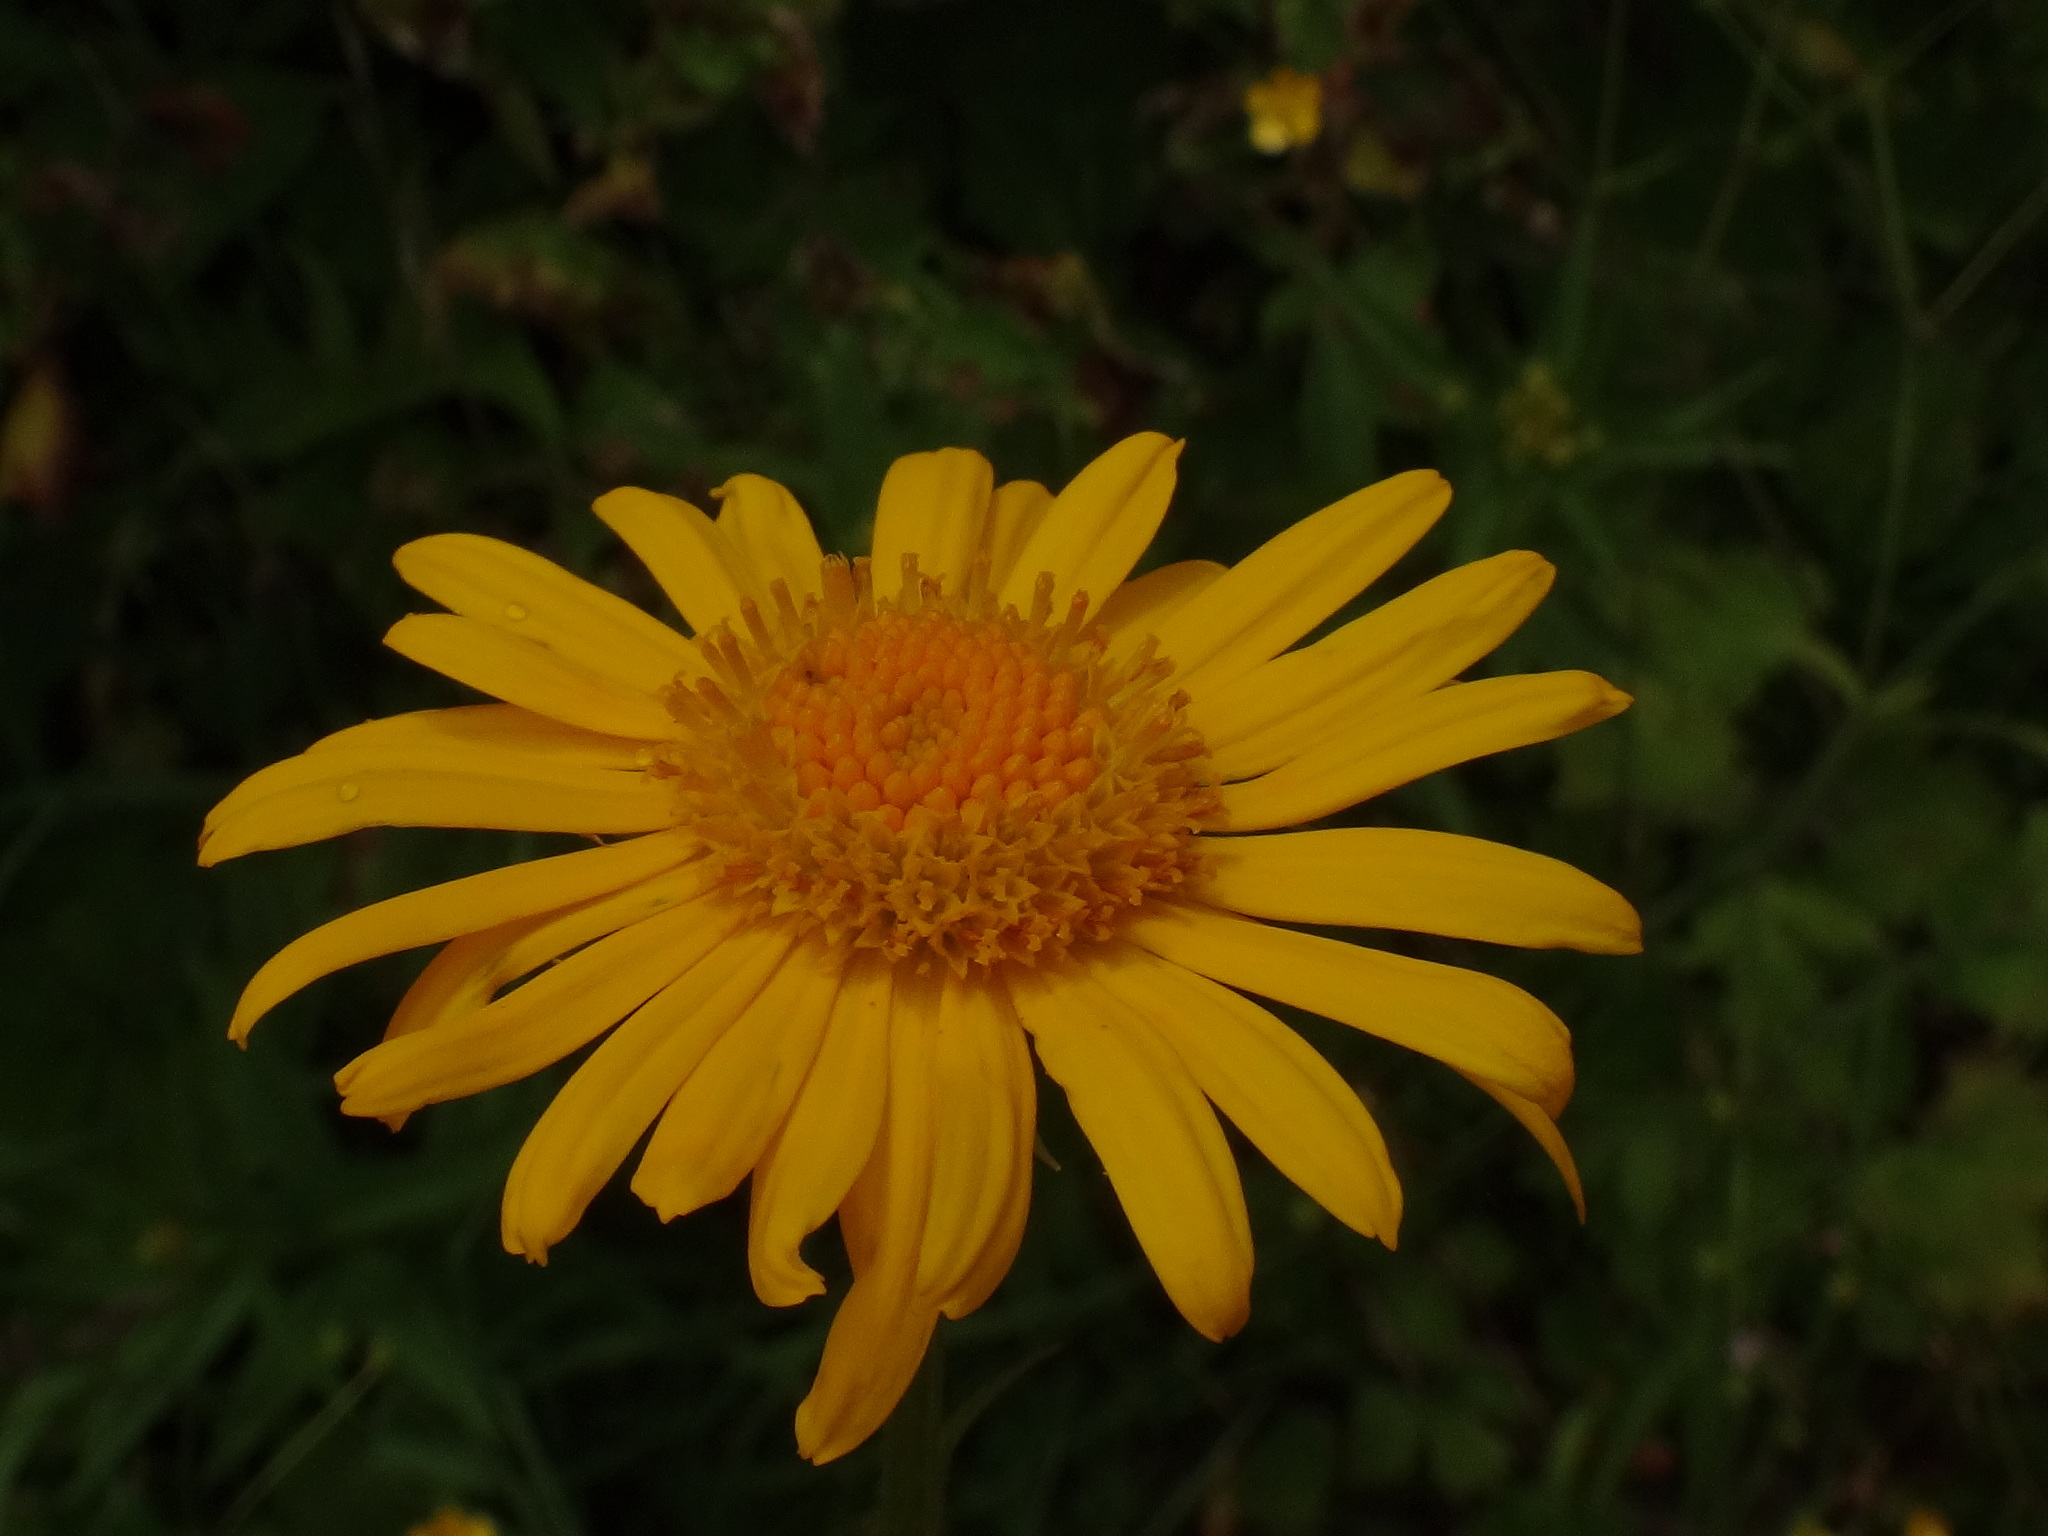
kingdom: Plantae
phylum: Tracheophyta
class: Magnoliopsida
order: Asterales
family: Asteraceae
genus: Doronicum
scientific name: Doronicum austriacum
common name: Austrian leopard's-bane
